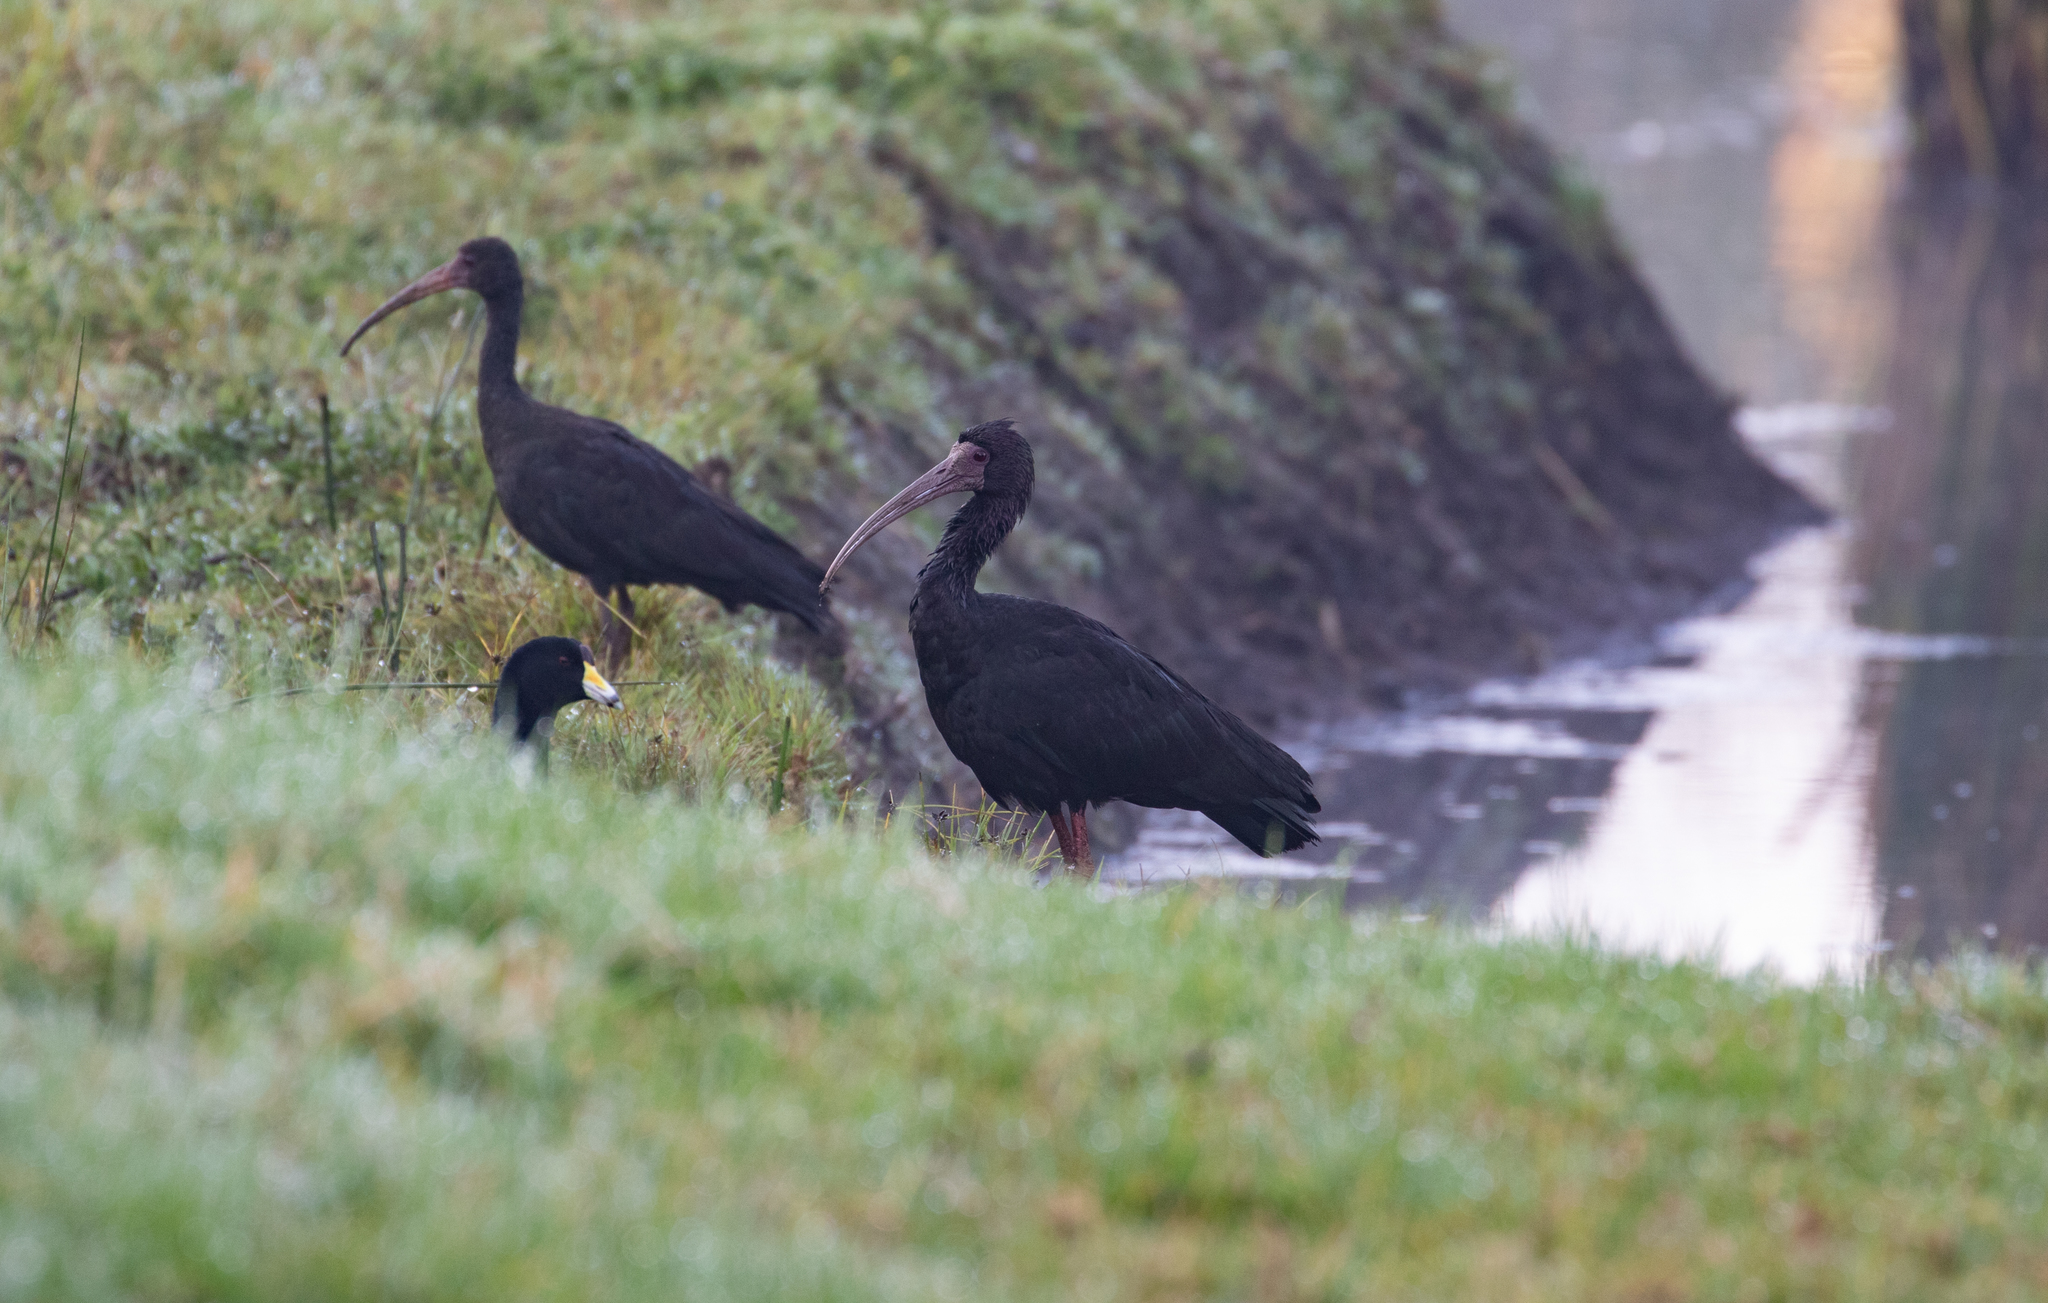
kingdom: Animalia
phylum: Chordata
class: Aves
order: Pelecaniformes
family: Threskiornithidae
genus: Phimosus
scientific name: Phimosus infuscatus
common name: Bare-faced ibis
